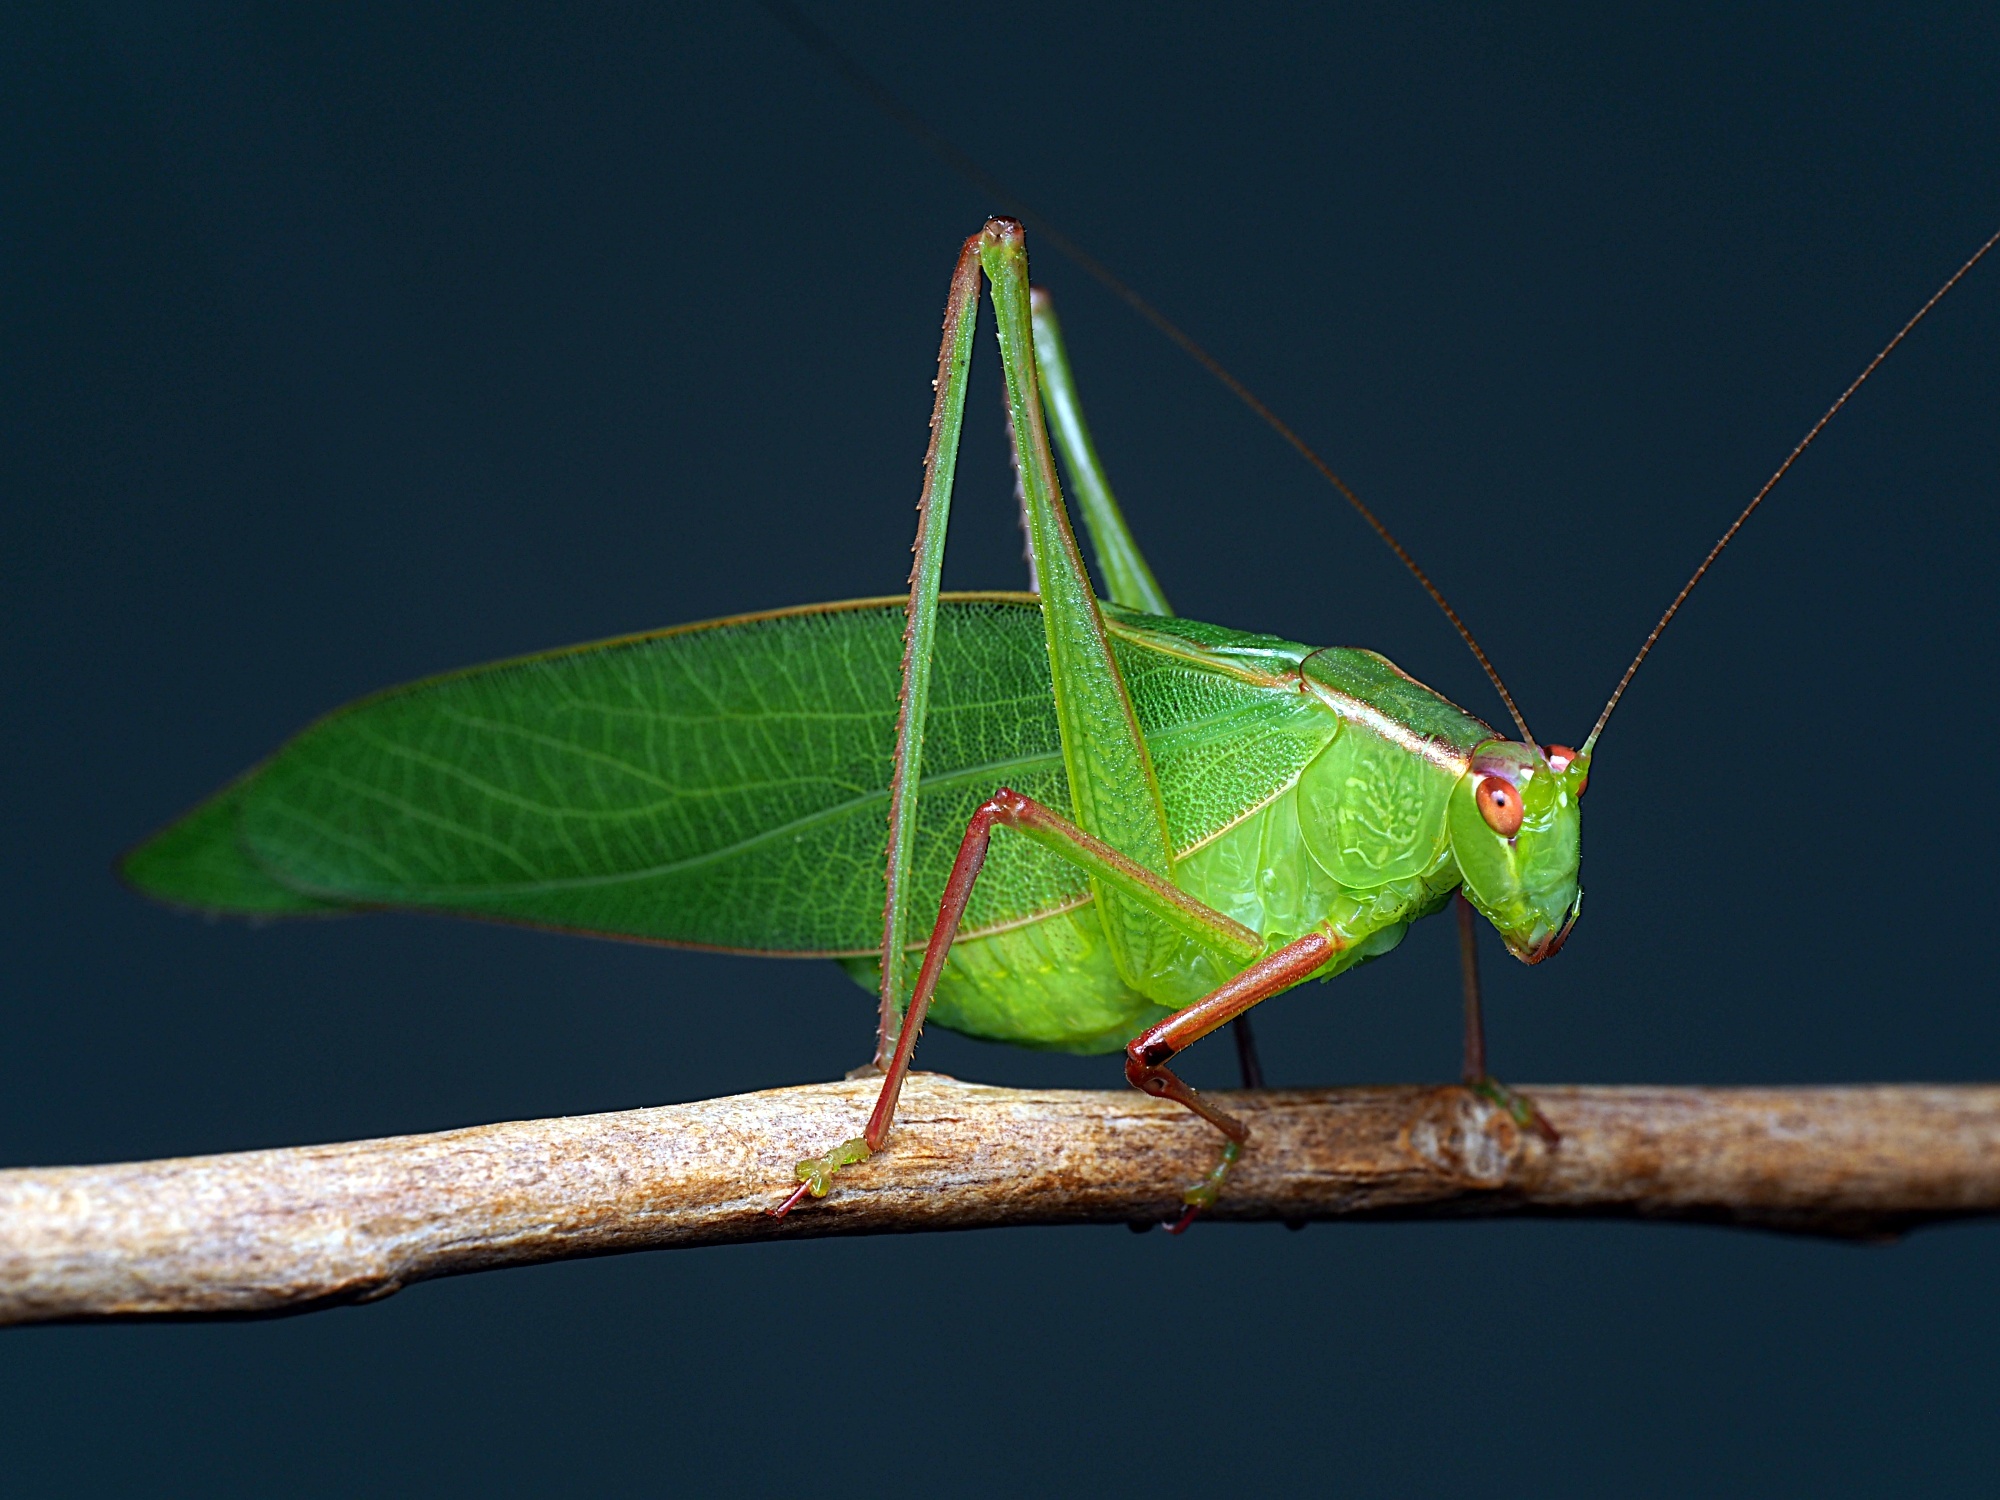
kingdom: Animalia
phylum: Arthropoda
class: Insecta
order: Orthoptera
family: Tettigoniidae
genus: Caedicia
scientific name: Caedicia simplex
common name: Common garden katydid
